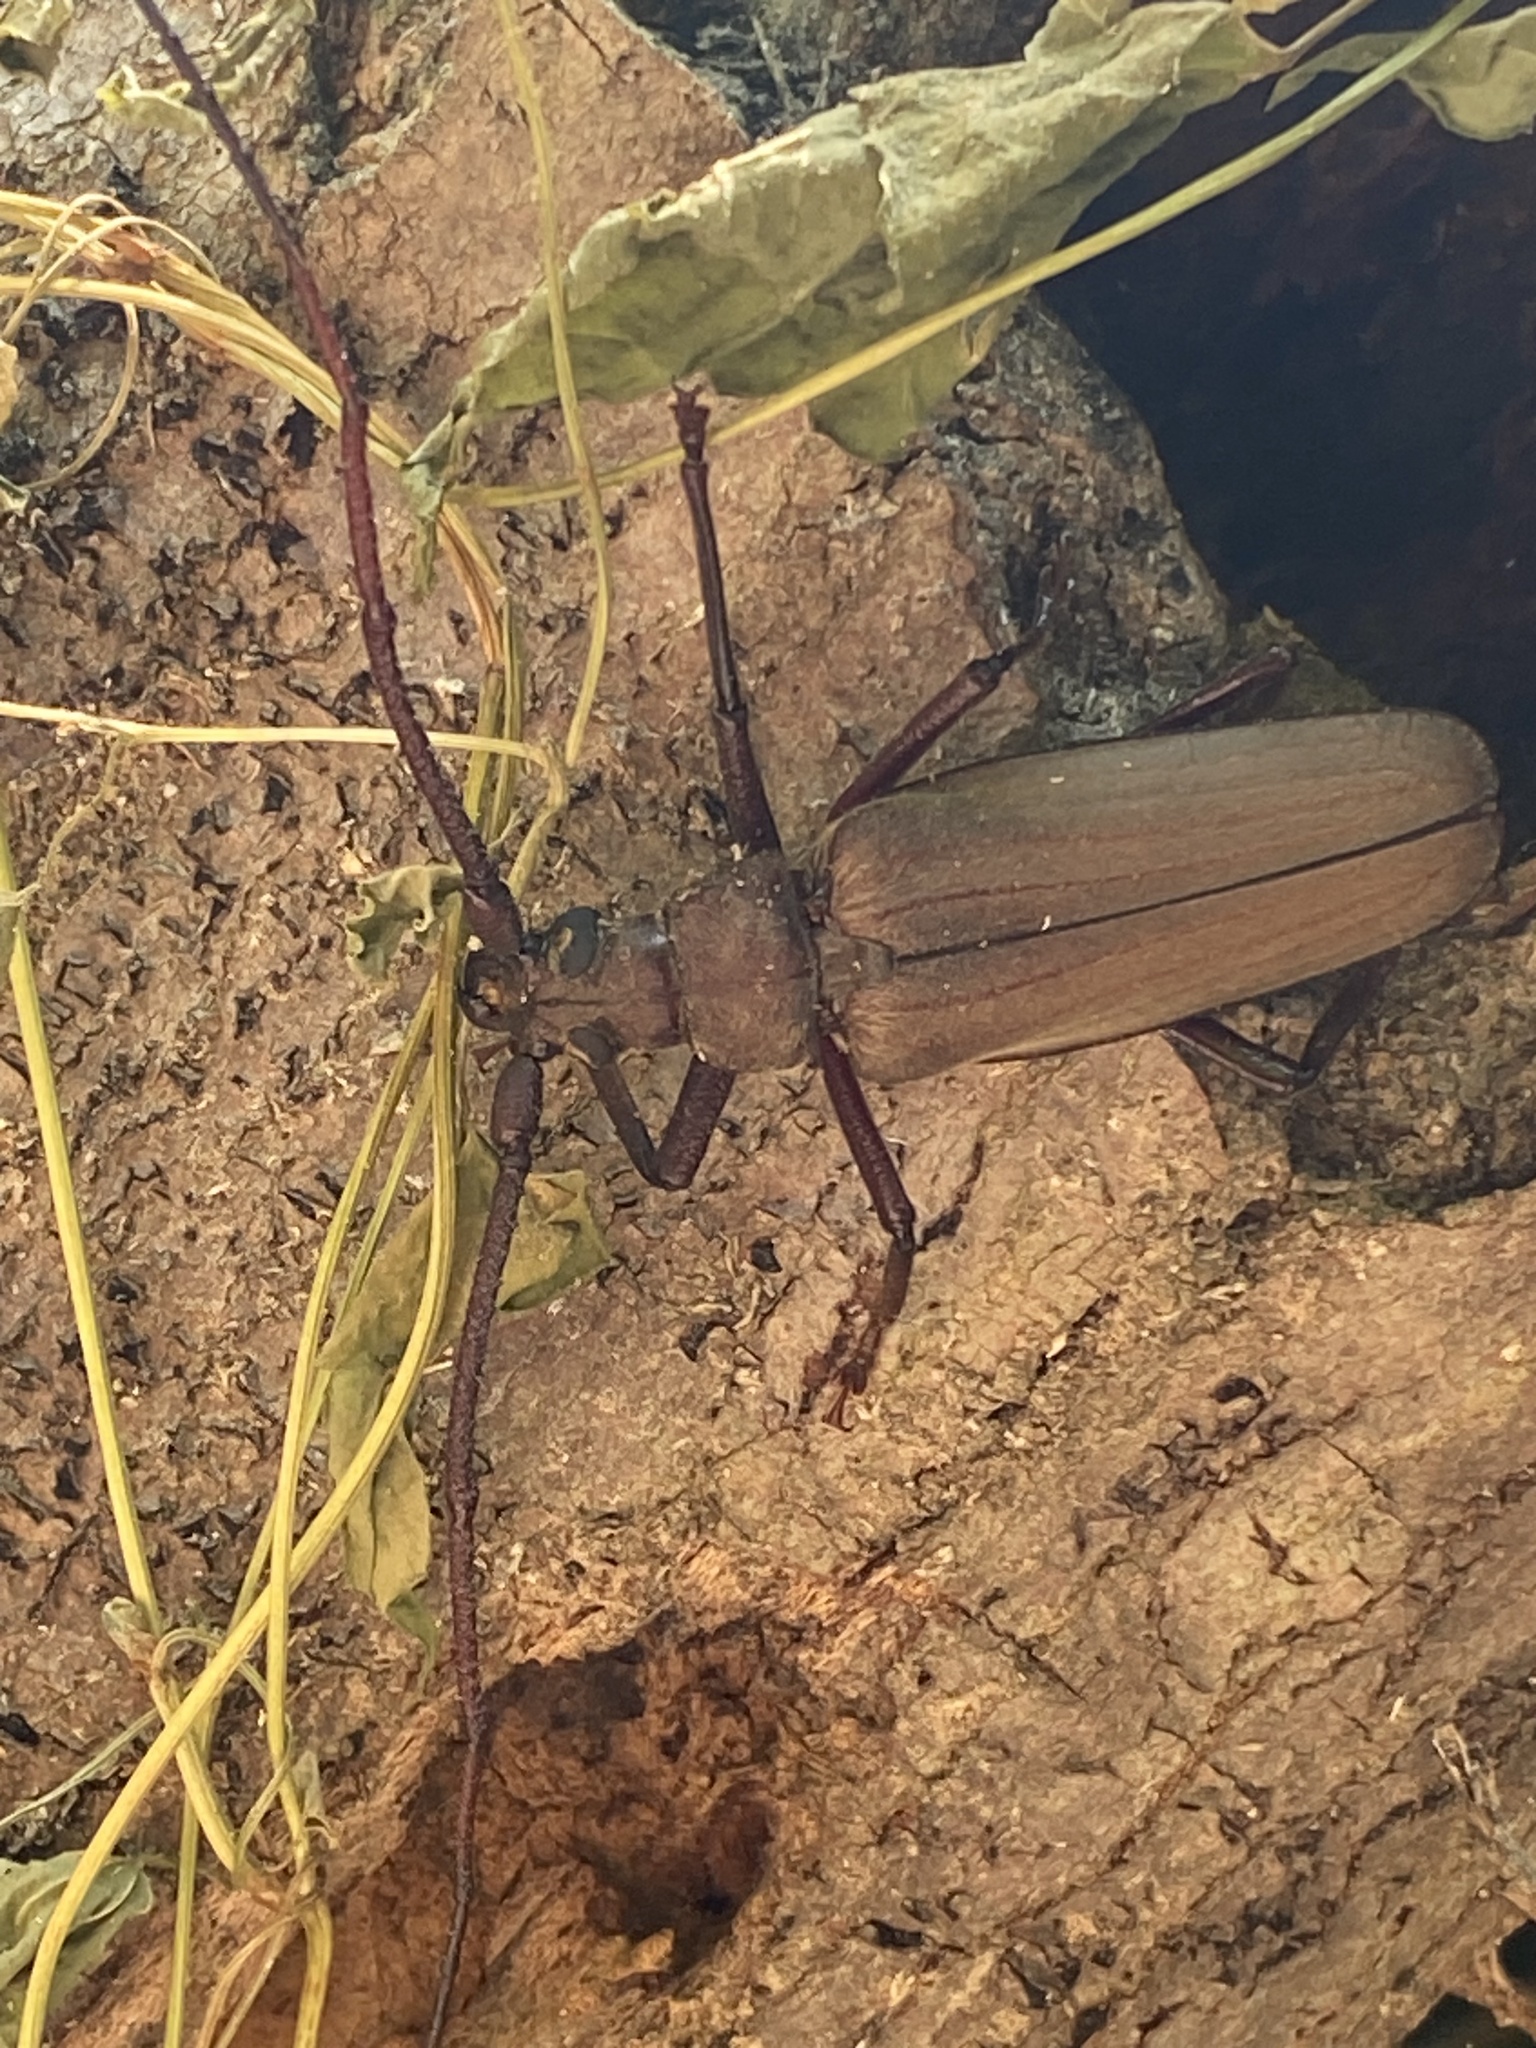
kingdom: Animalia
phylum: Arthropoda
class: Insecta
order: Coleoptera
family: Cerambycidae
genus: Aegosoma
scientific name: Aegosoma scabricorne
